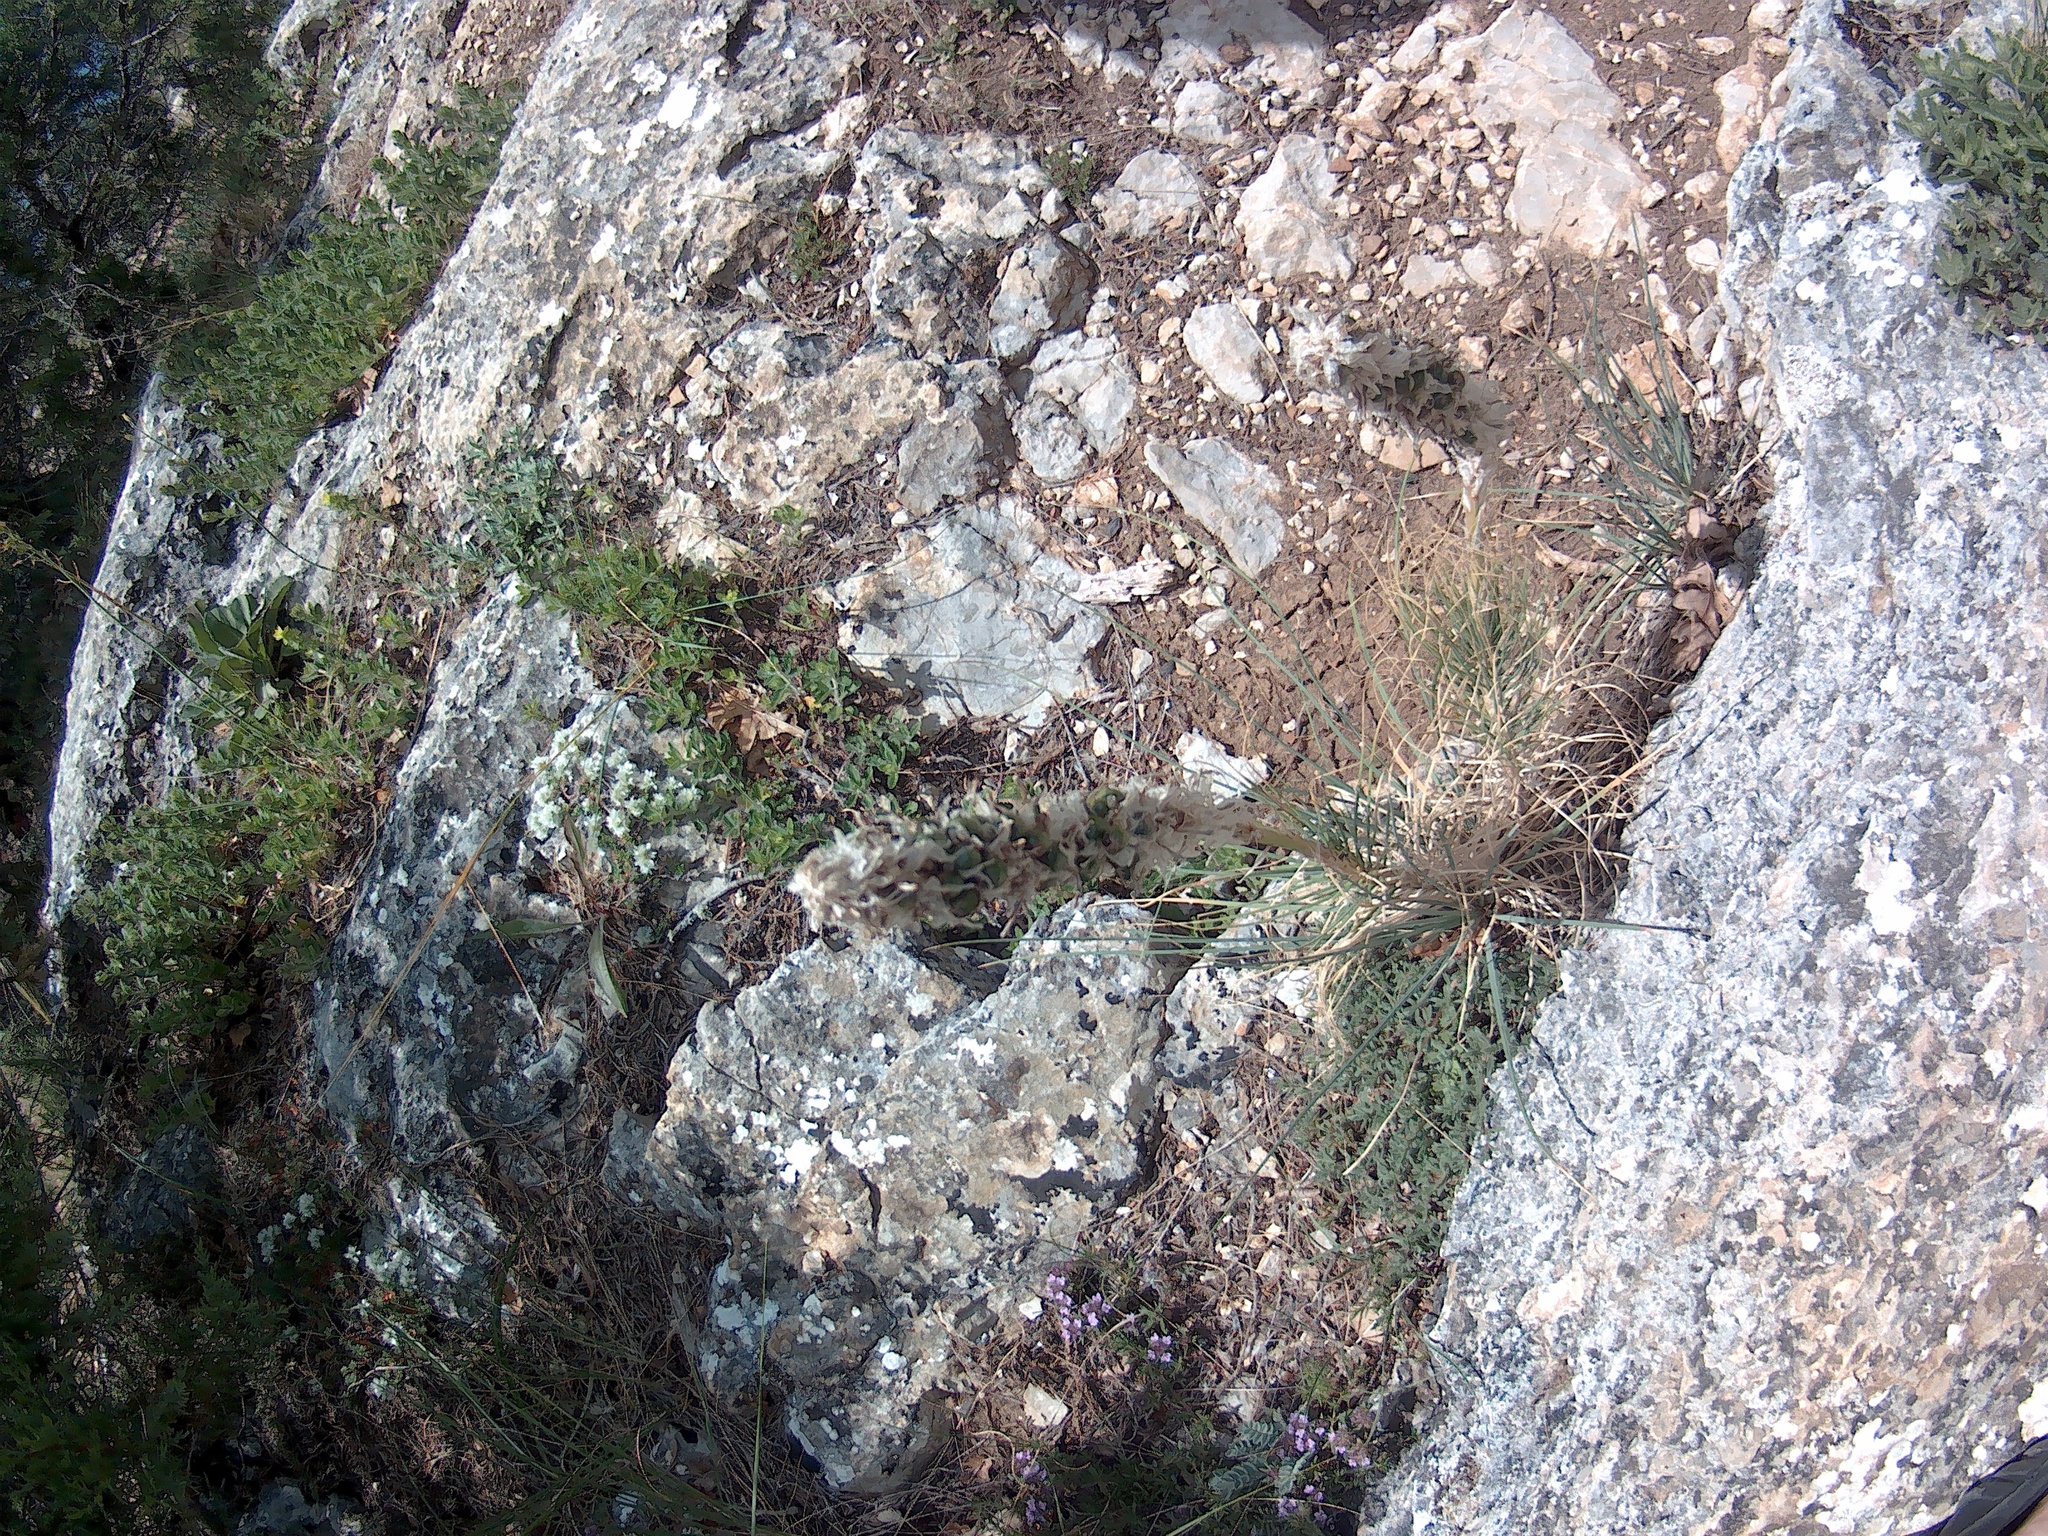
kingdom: Plantae
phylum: Tracheophyta
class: Liliopsida
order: Asparagales
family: Asphodelaceae
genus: Asphodeline
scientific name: Asphodeline taurica
